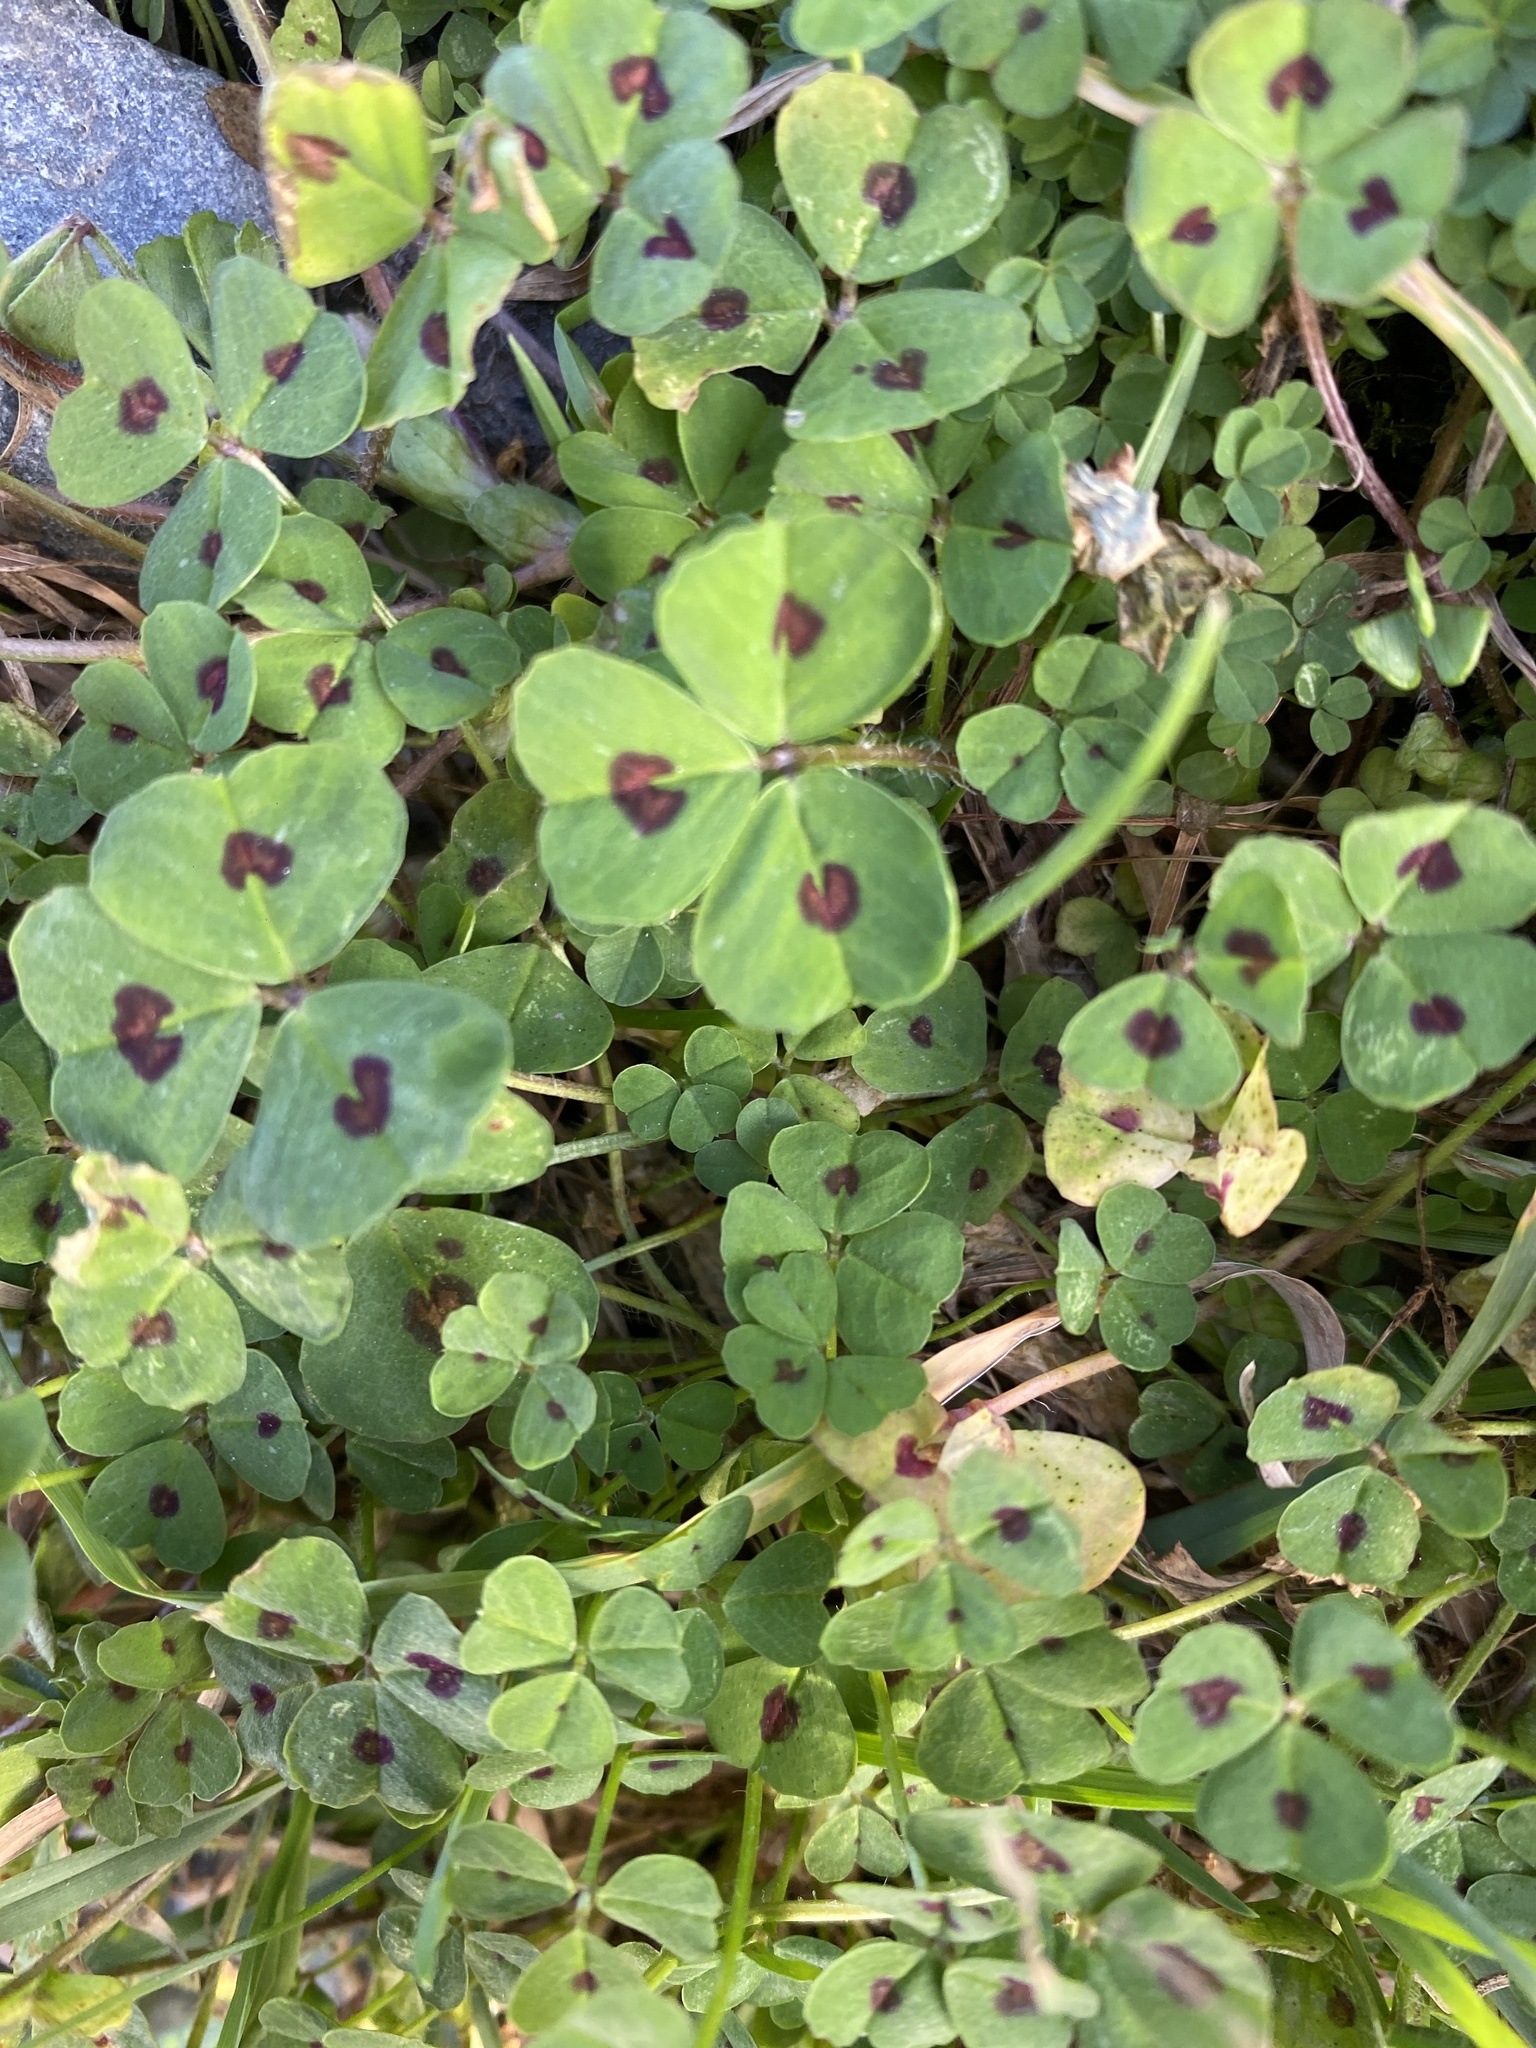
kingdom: Plantae
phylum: Tracheophyta
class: Magnoliopsida
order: Fabales
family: Fabaceae
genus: Medicago
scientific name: Medicago arabica
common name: Spotted medick
